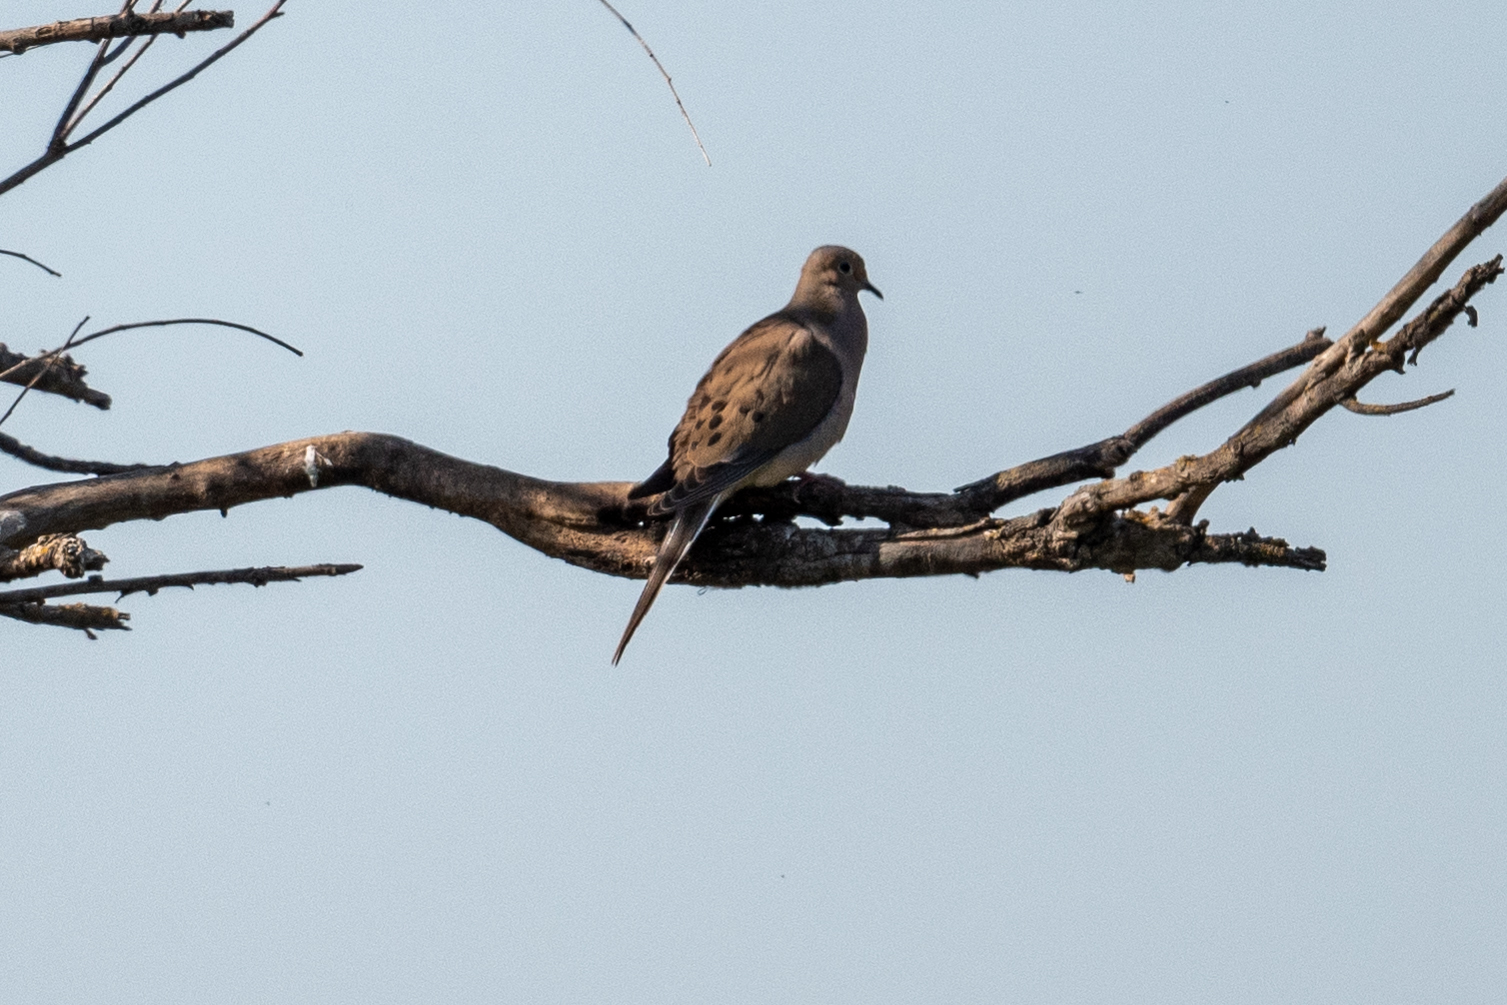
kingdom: Animalia
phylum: Chordata
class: Aves
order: Columbiformes
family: Columbidae
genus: Zenaida
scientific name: Zenaida macroura
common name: Mourning dove
